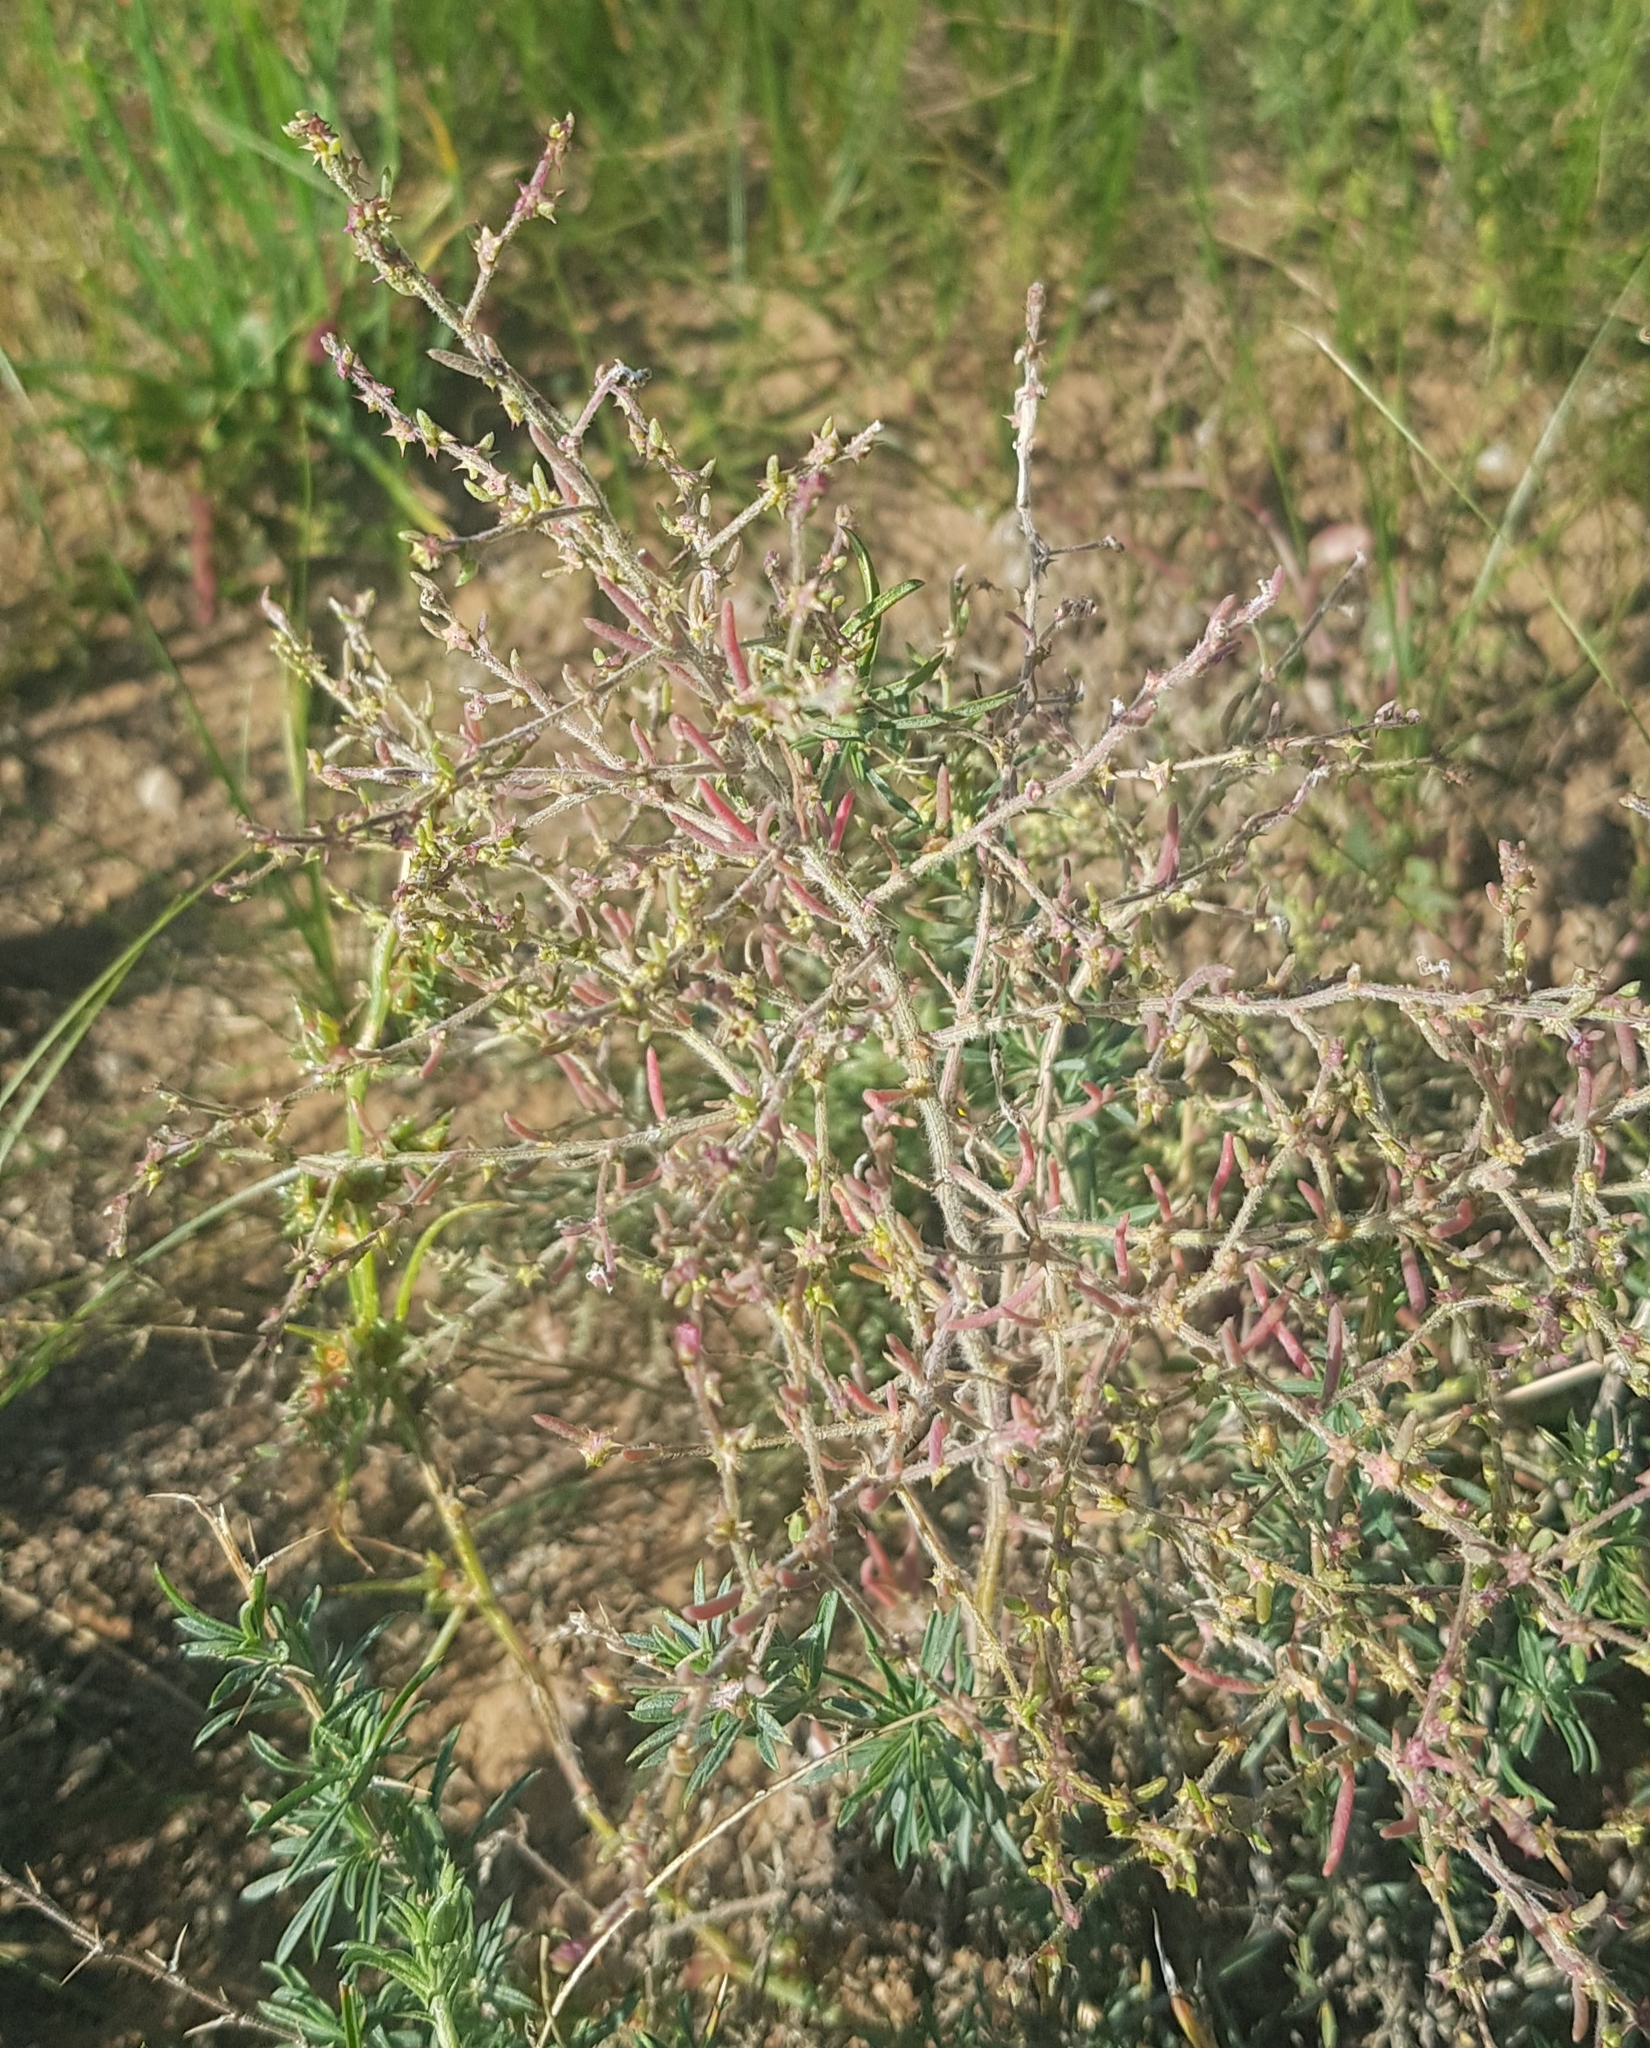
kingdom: Plantae
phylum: Tracheophyta
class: Magnoliopsida
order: Caryophyllales
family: Amaranthaceae
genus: Bassia
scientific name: Bassia prostrata
